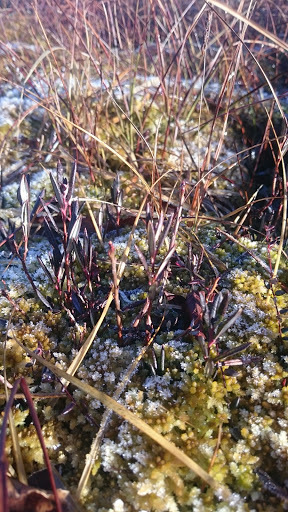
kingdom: Plantae
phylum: Tracheophyta
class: Magnoliopsida
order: Ericales
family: Ericaceae
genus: Andromeda
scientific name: Andromeda polifolia
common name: Bog-rosemary
